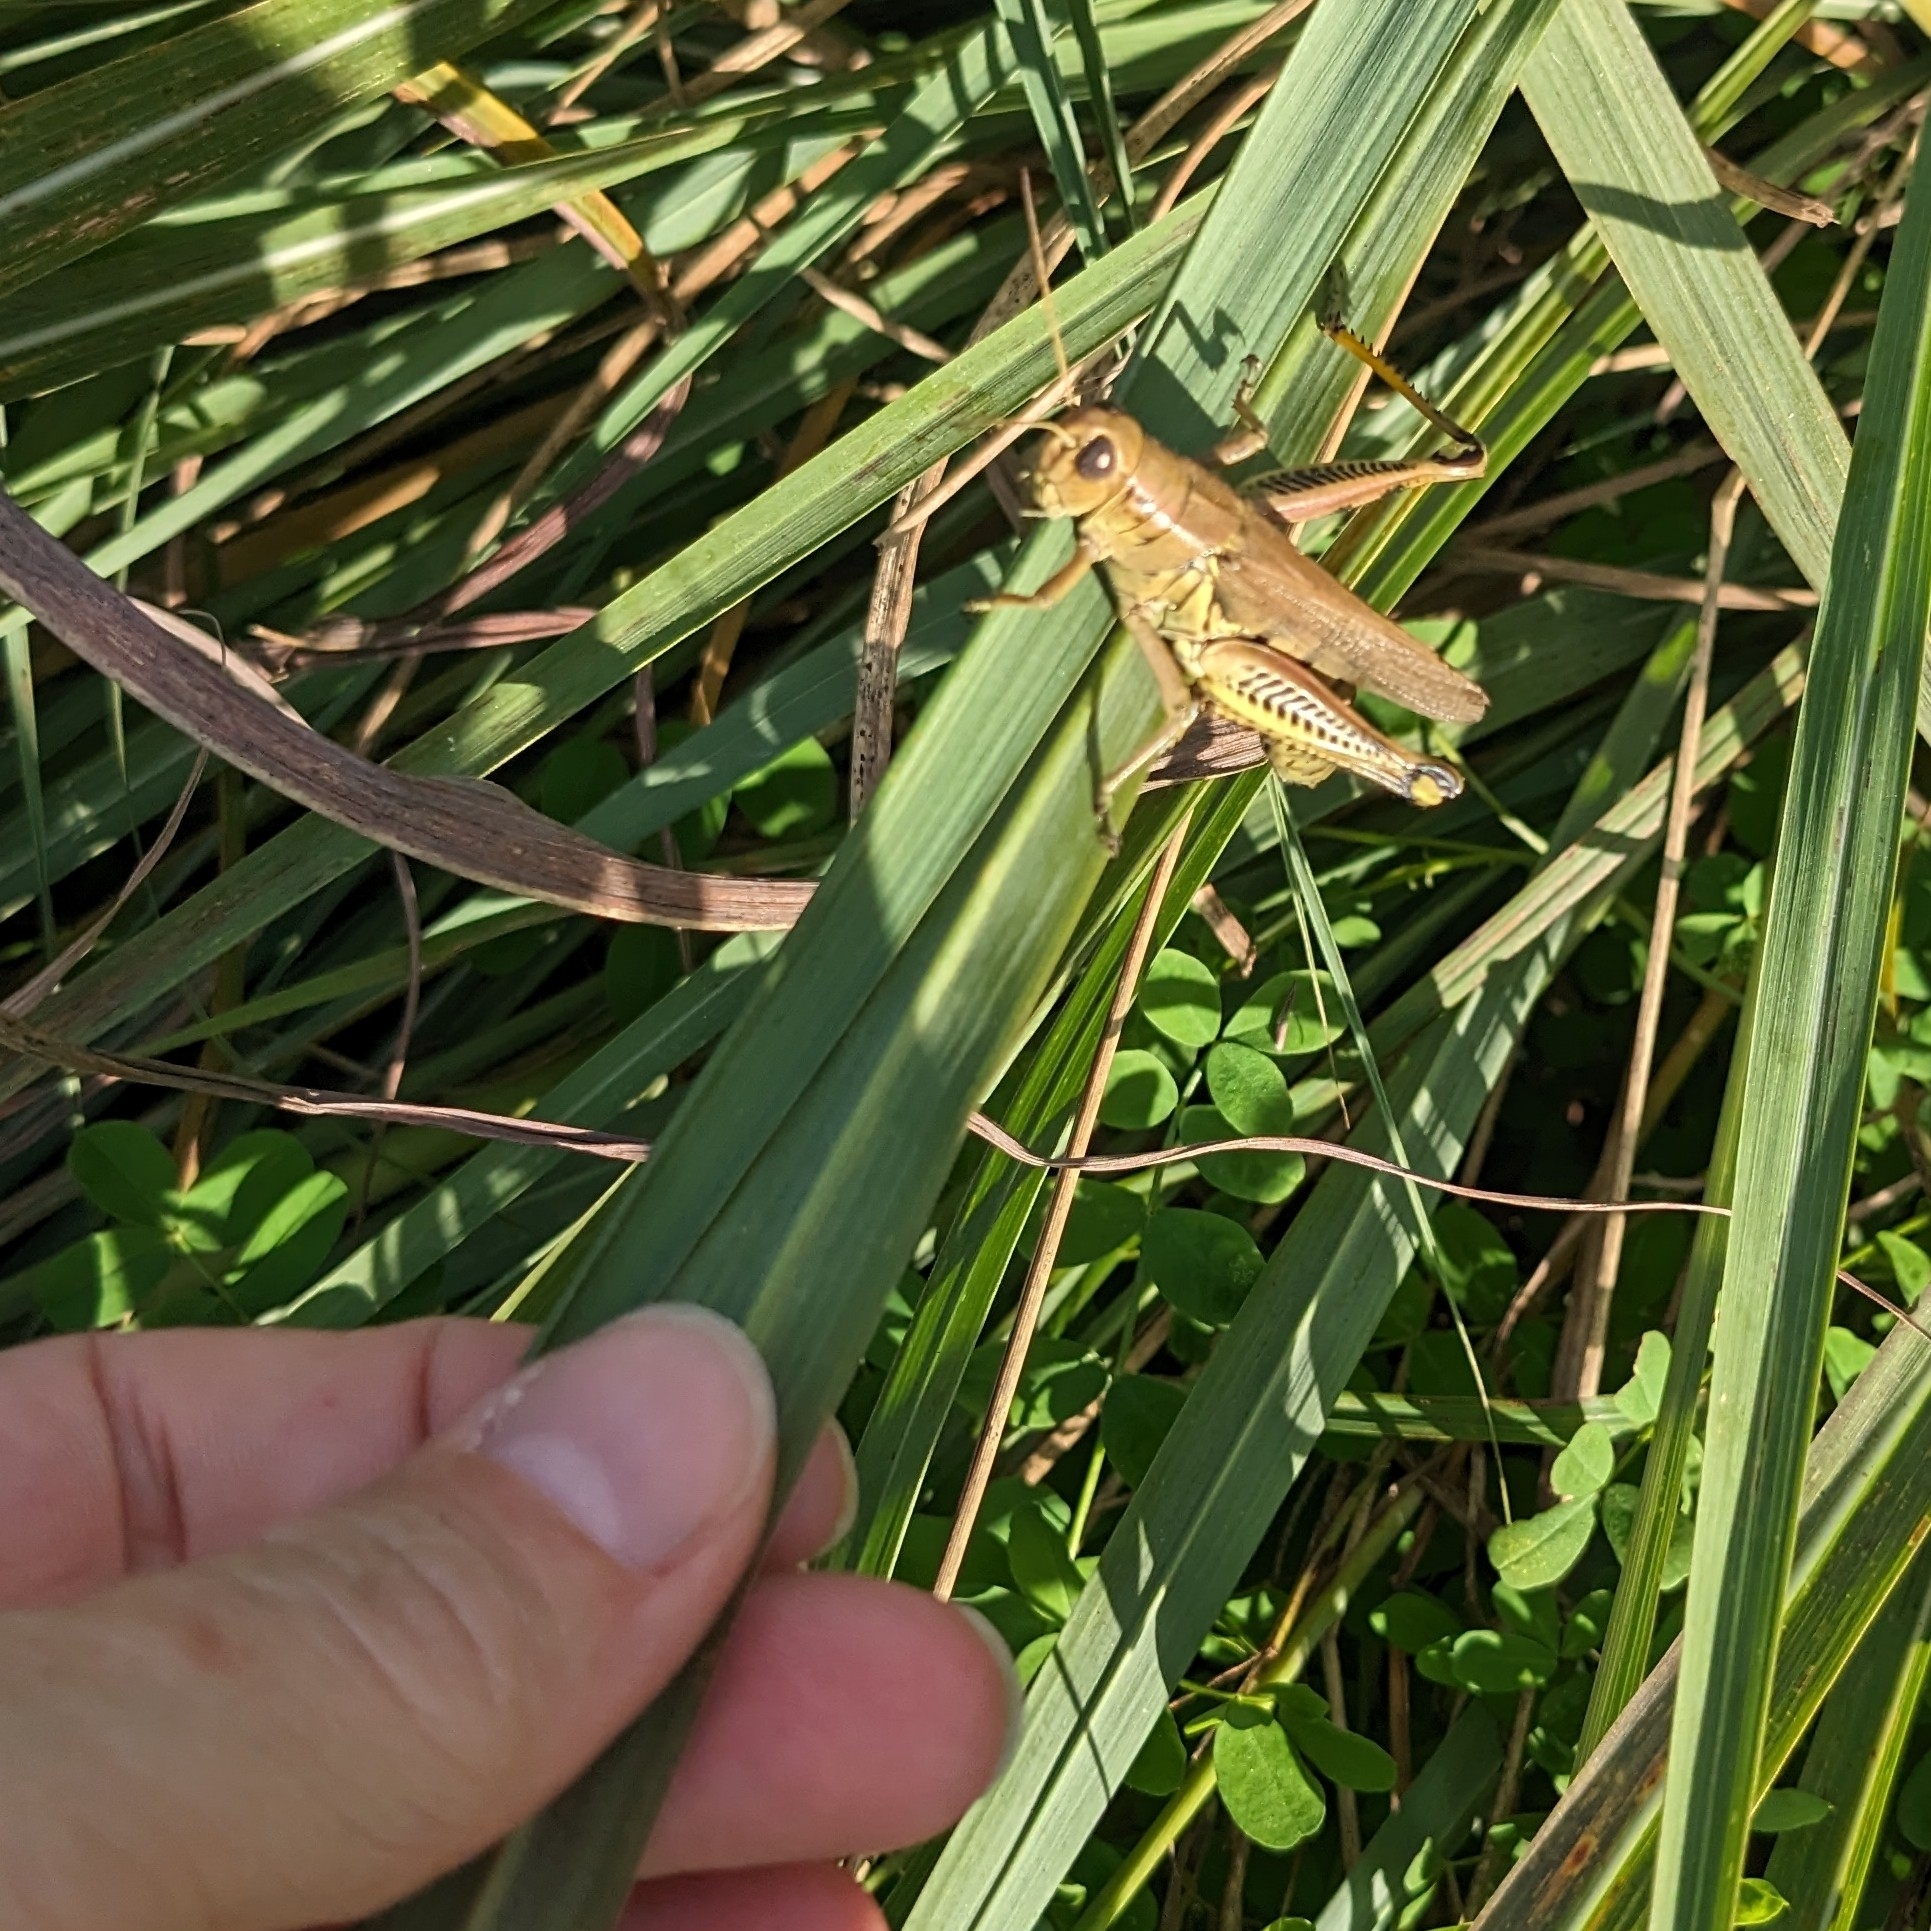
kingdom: Animalia
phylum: Arthropoda
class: Insecta
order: Orthoptera
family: Acrididae
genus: Melanoplus
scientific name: Melanoplus differentialis
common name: Differential grasshopper
